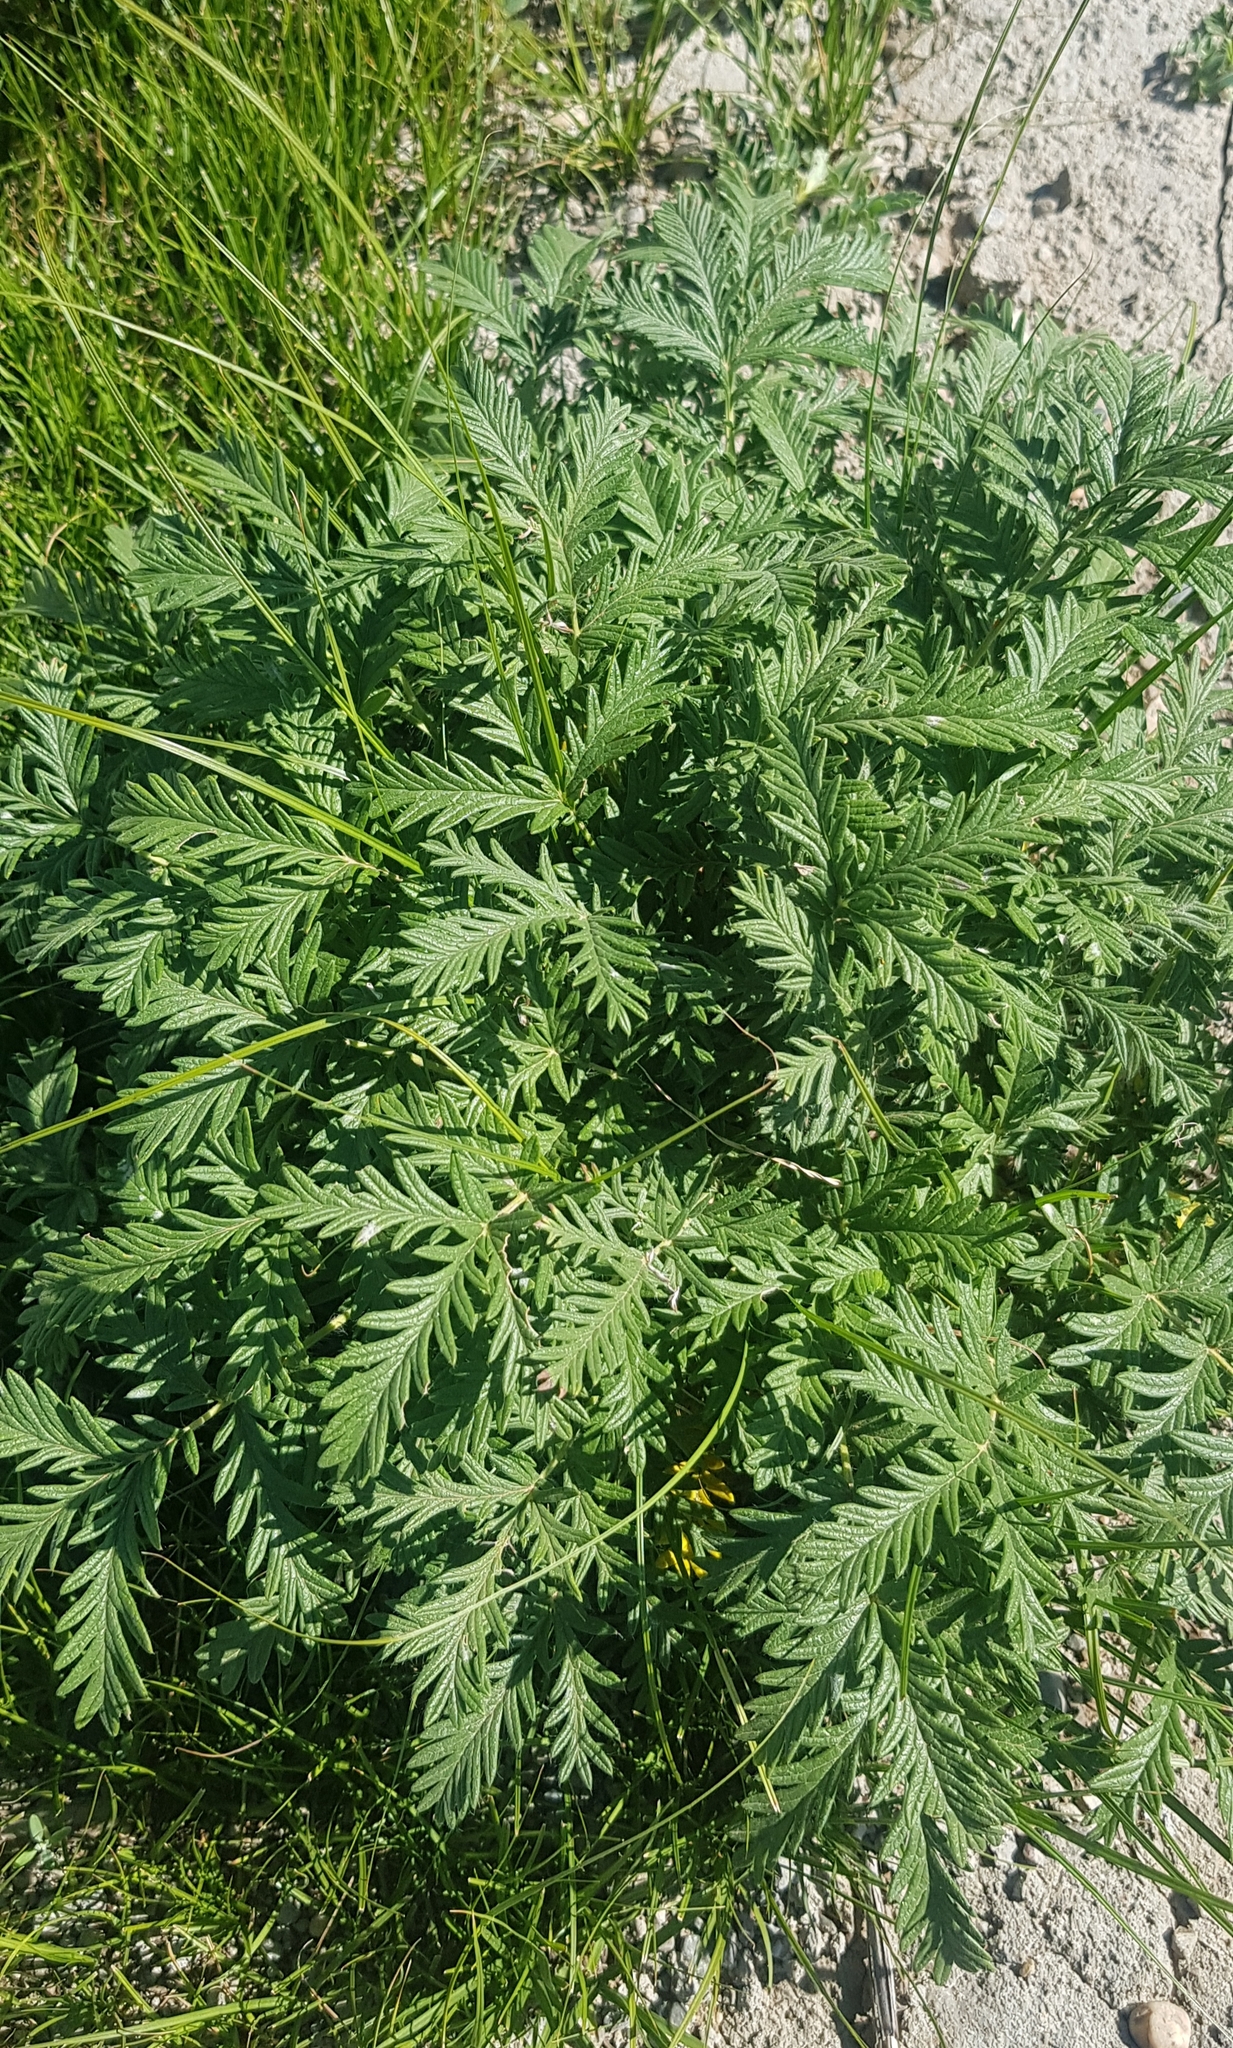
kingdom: Plantae
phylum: Tracheophyta
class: Magnoliopsida
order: Rosales
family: Rosaceae
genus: Potentilla
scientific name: Potentilla tergemina
